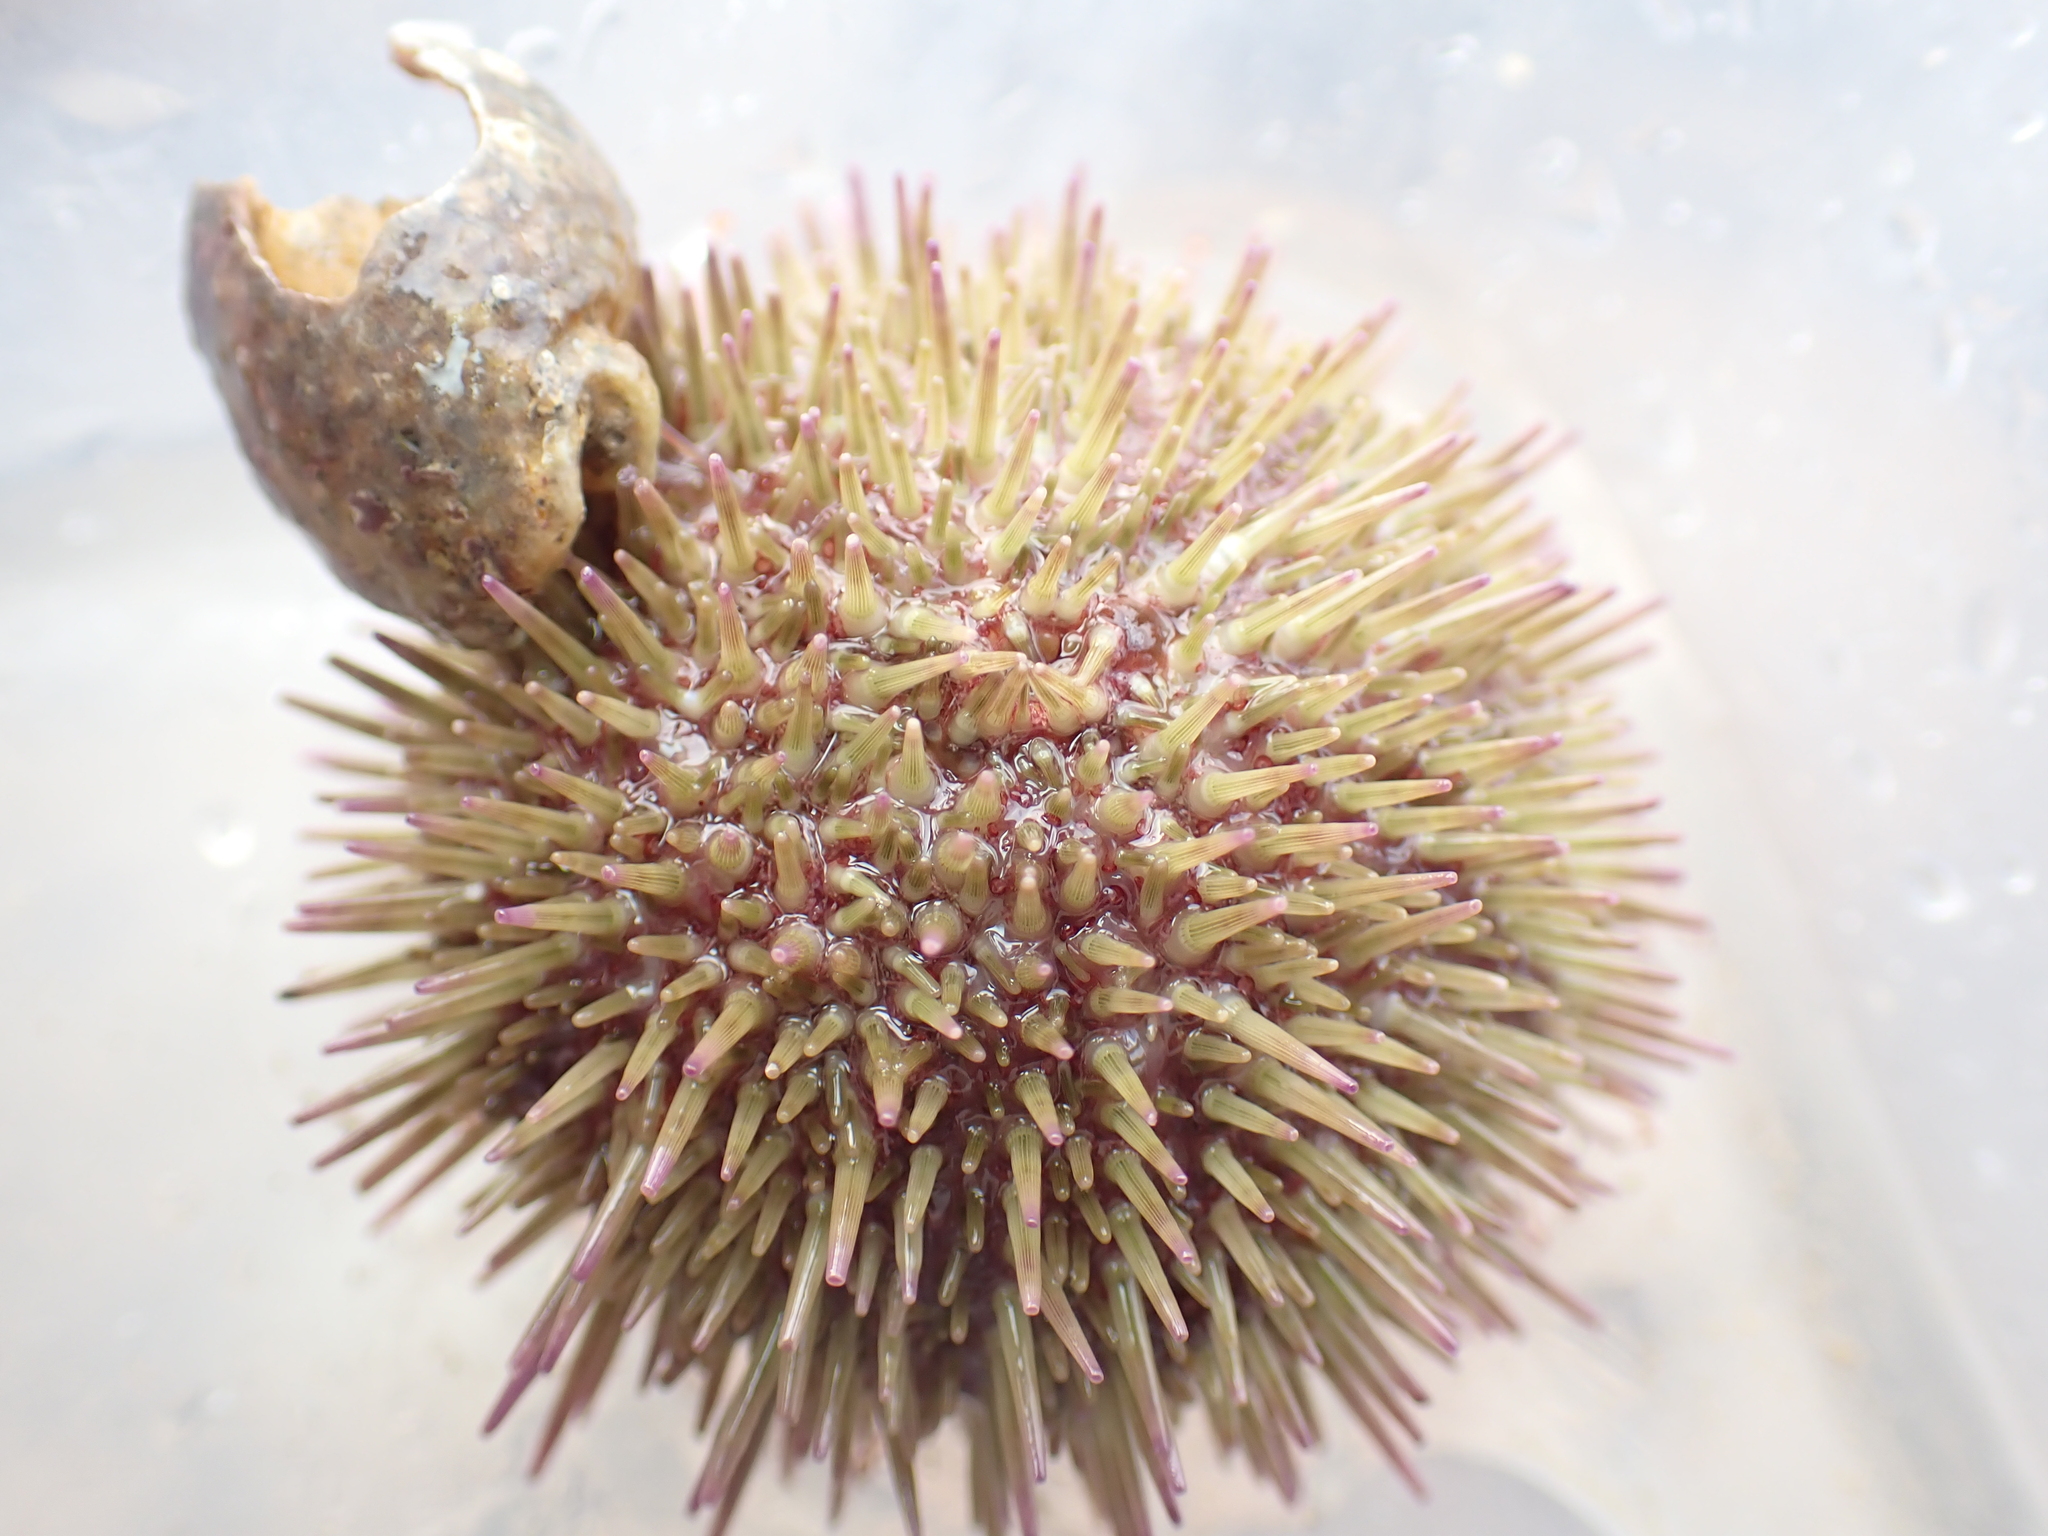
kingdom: Animalia
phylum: Echinodermata
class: Echinoidea
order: Camarodonta
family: Parechinidae
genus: Psammechinus
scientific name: Psammechinus miliaris
